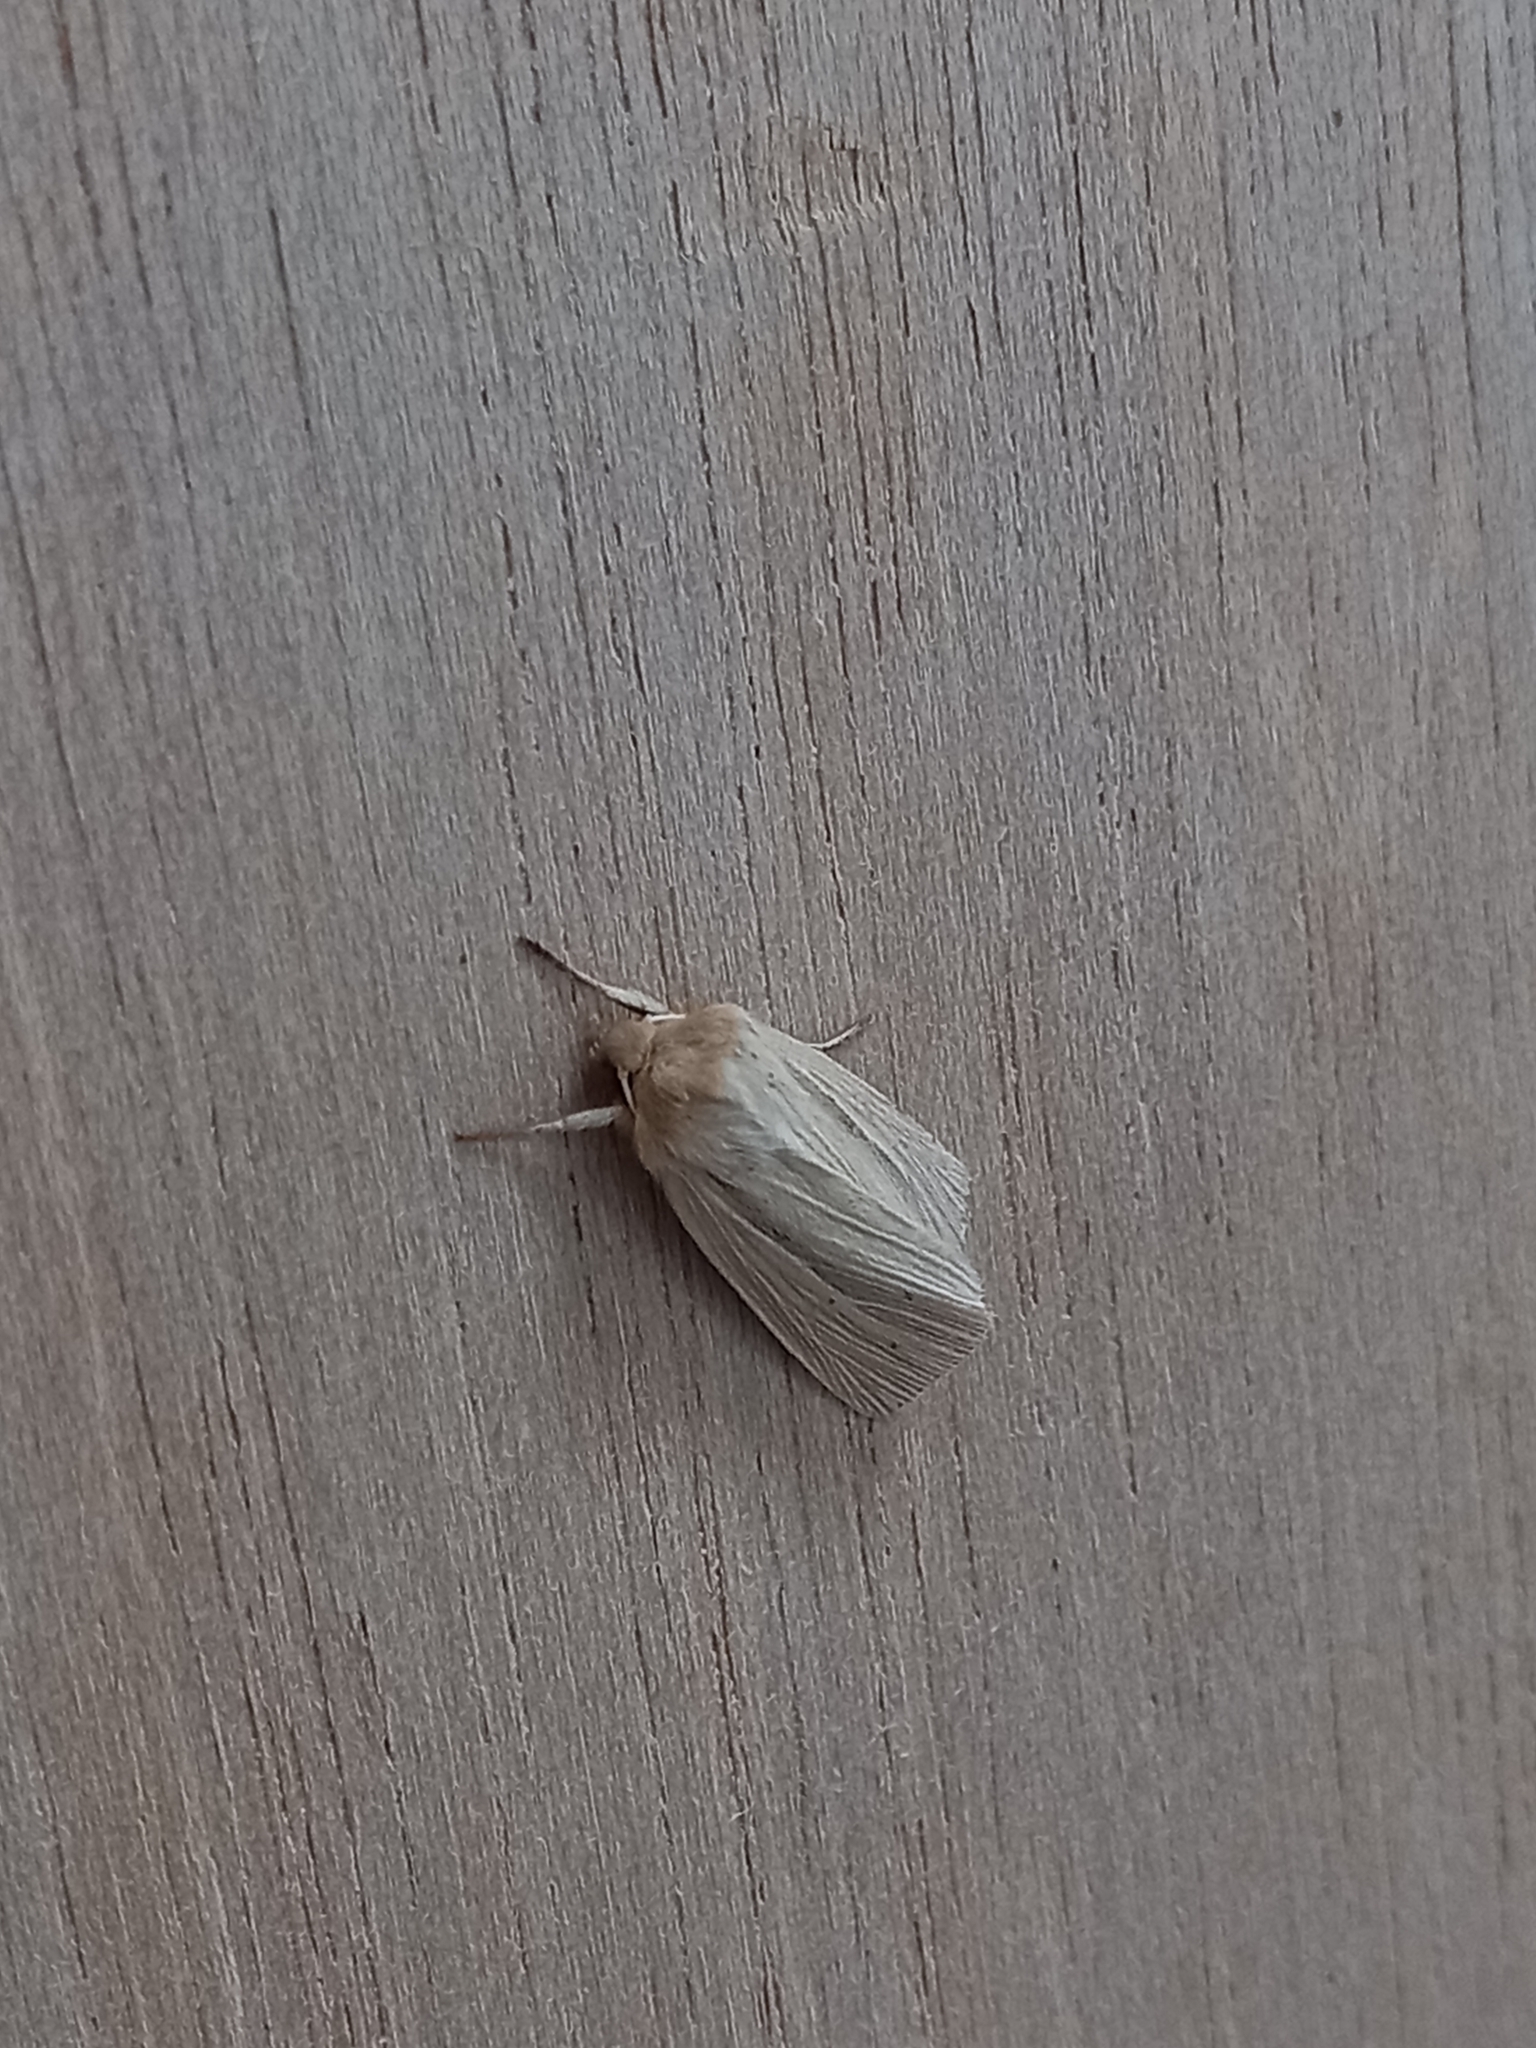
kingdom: Animalia
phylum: Arthropoda
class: Insecta
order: Lepidoptera
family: Noctuidae
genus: Mythimna
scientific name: Mythimna impura
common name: Smoky wainscot
